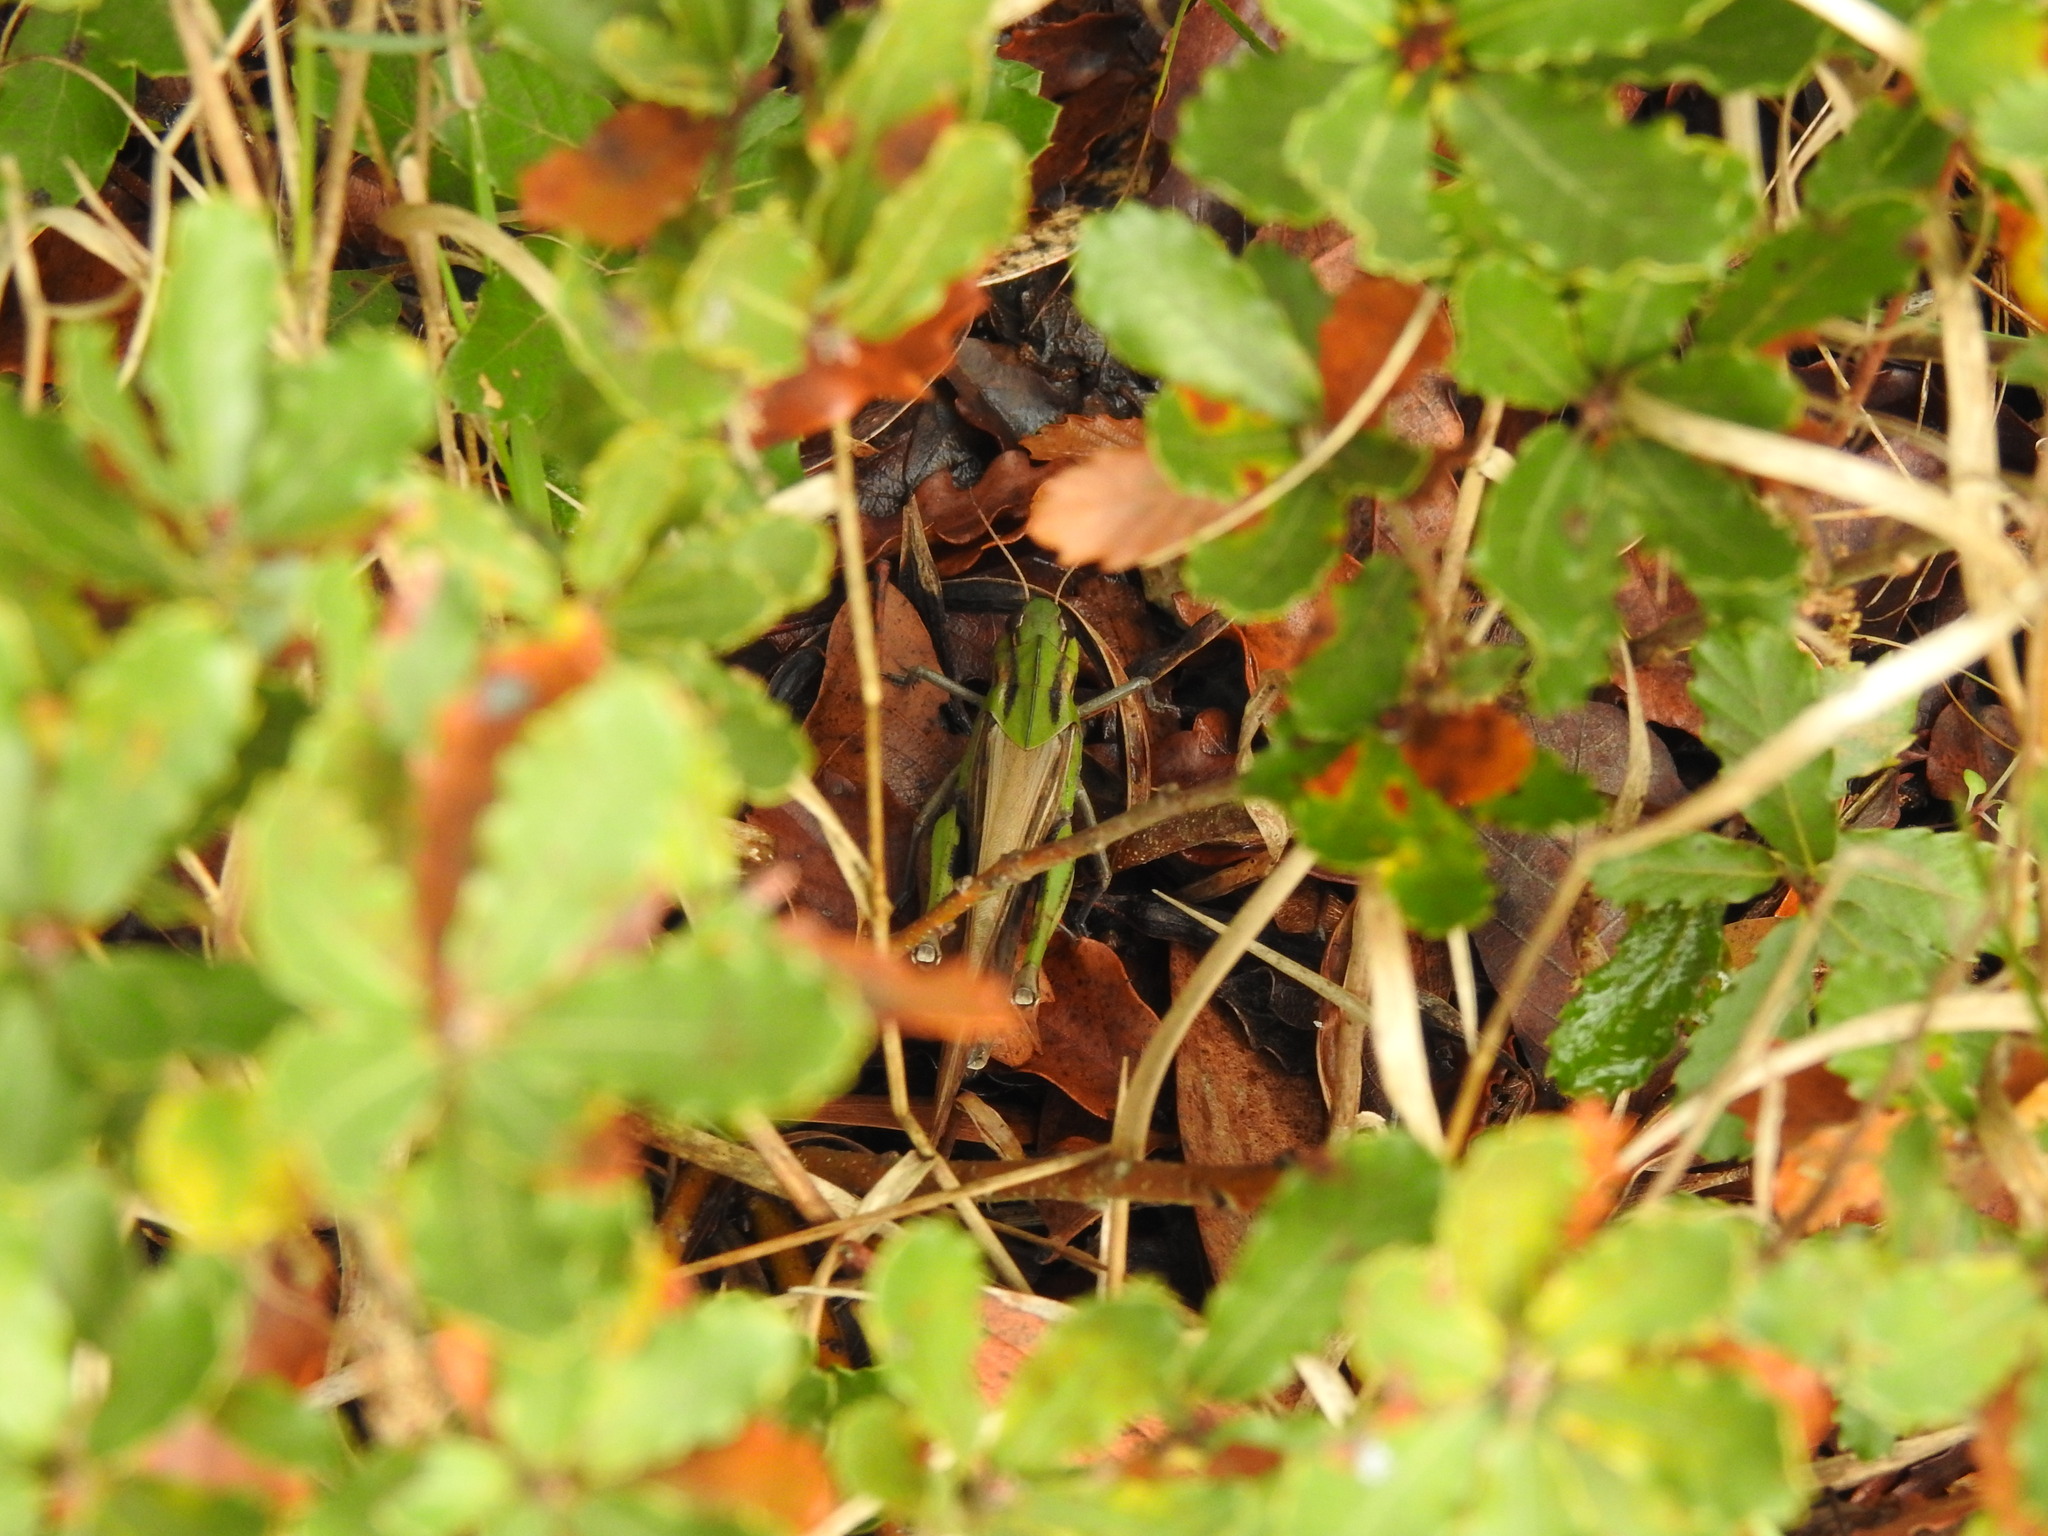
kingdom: Animalia
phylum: Arthropoda
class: Insecta
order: Orthoptera
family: Acrididae
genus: Locusta
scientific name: Locusta migratoria
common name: Migratory locust
